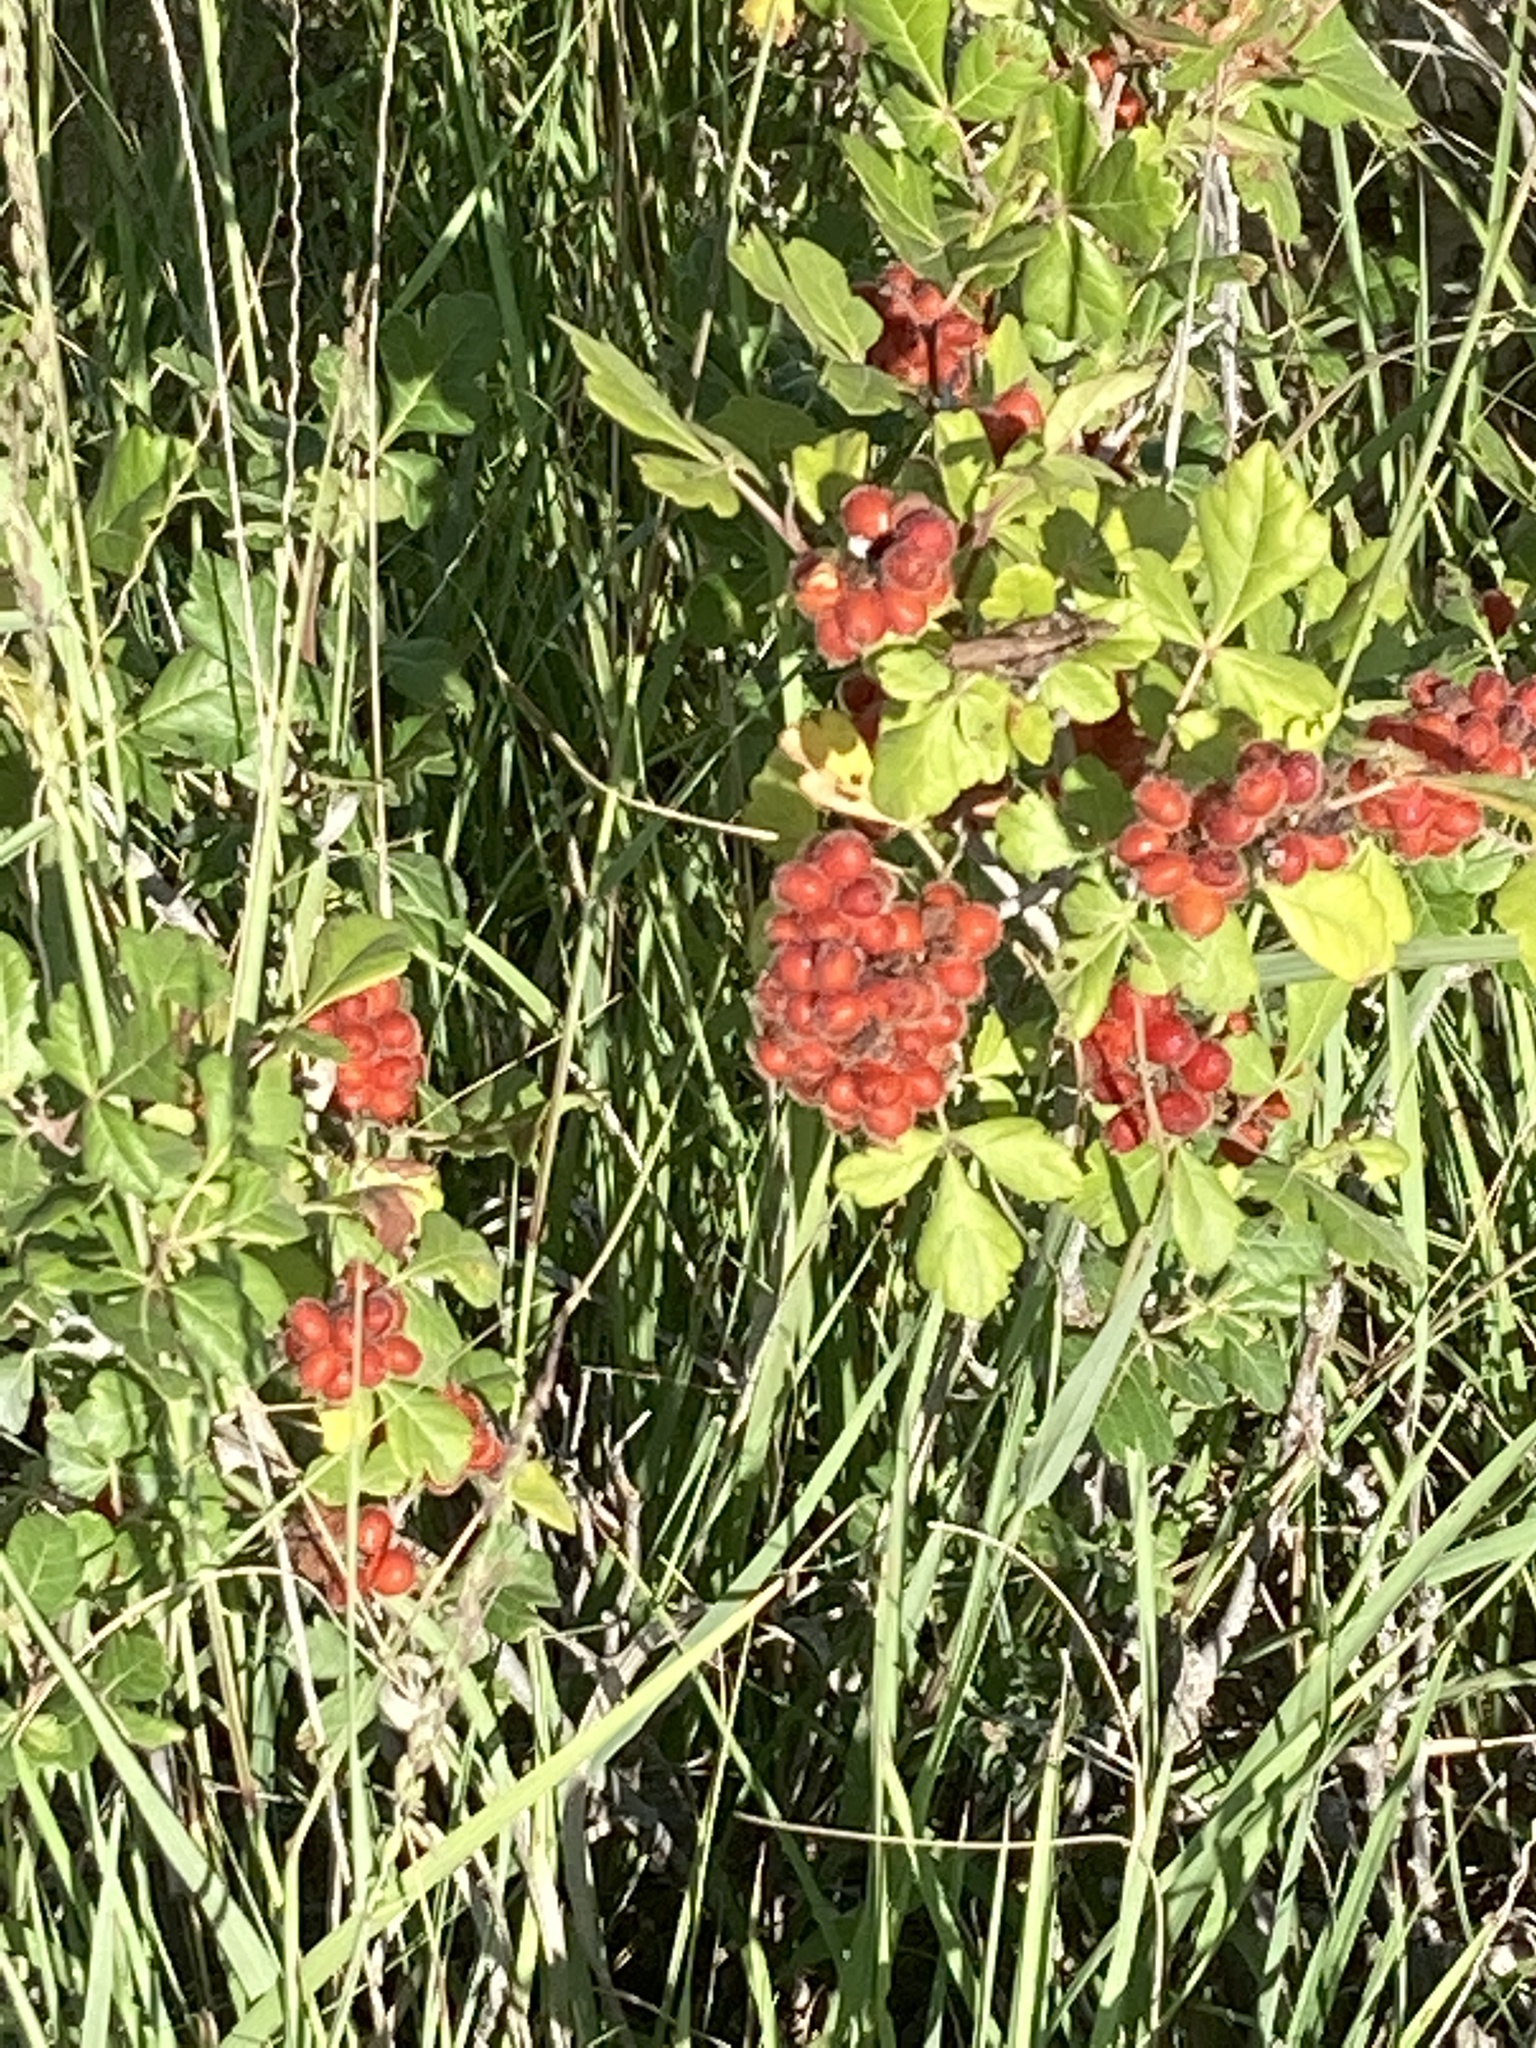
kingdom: Plantae
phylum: Tracheophyta
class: Magnoliopsida
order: Sapindales
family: Anacardiaceae
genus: Rhus
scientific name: Rhus aromatica
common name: Aromatic sumac
